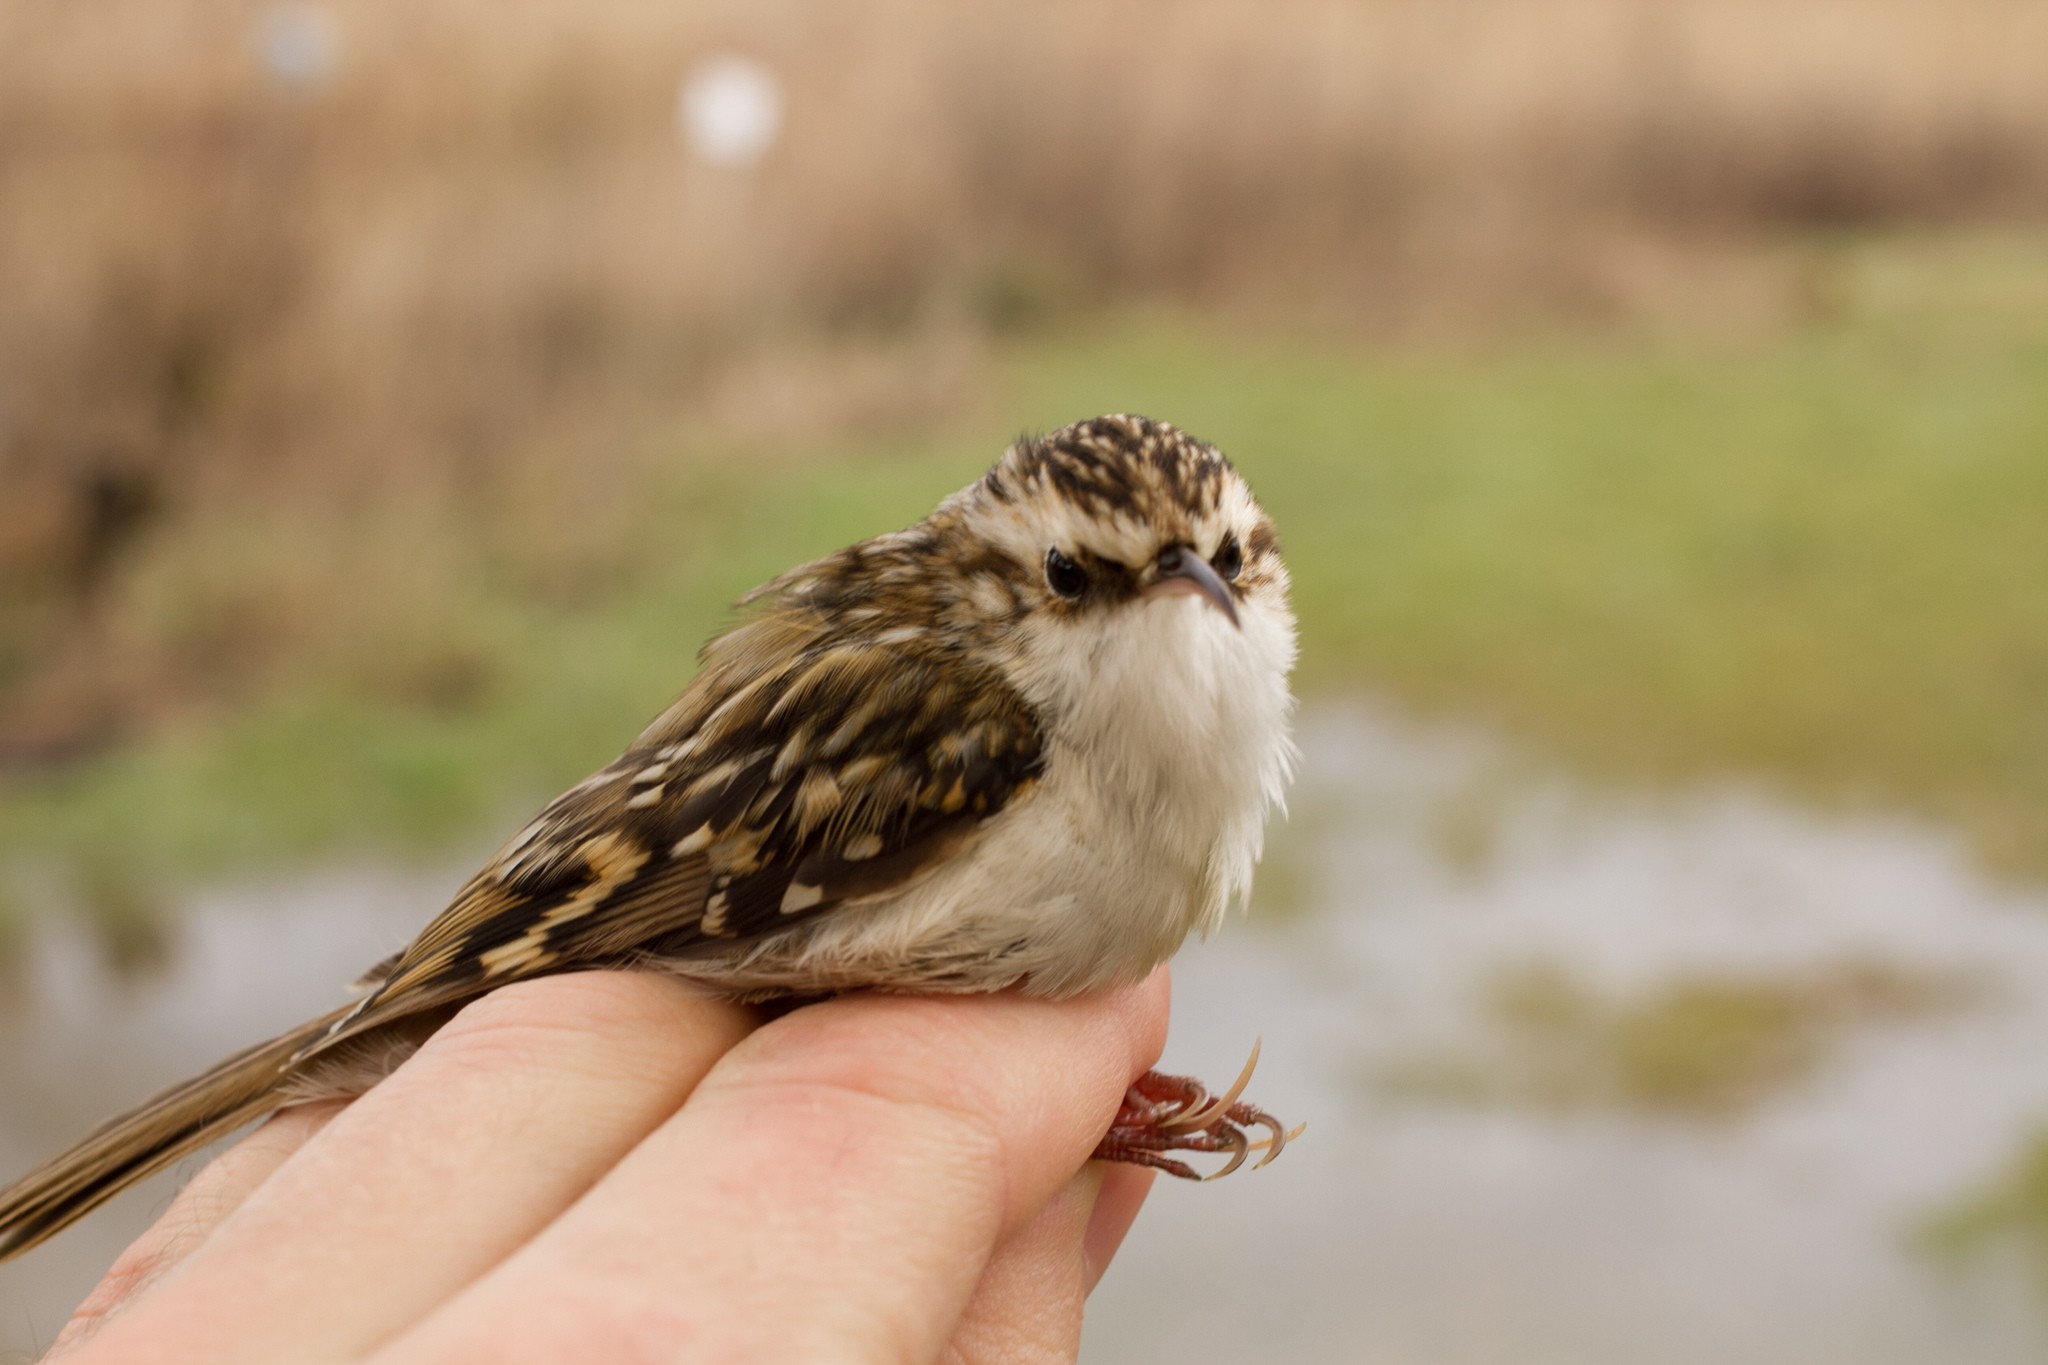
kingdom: Animalia
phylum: Chordata
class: Aves
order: Passeriformes
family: Certhiidae
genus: Certhia
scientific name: Certhia brachydactyla
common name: Short-toed treecreeper
